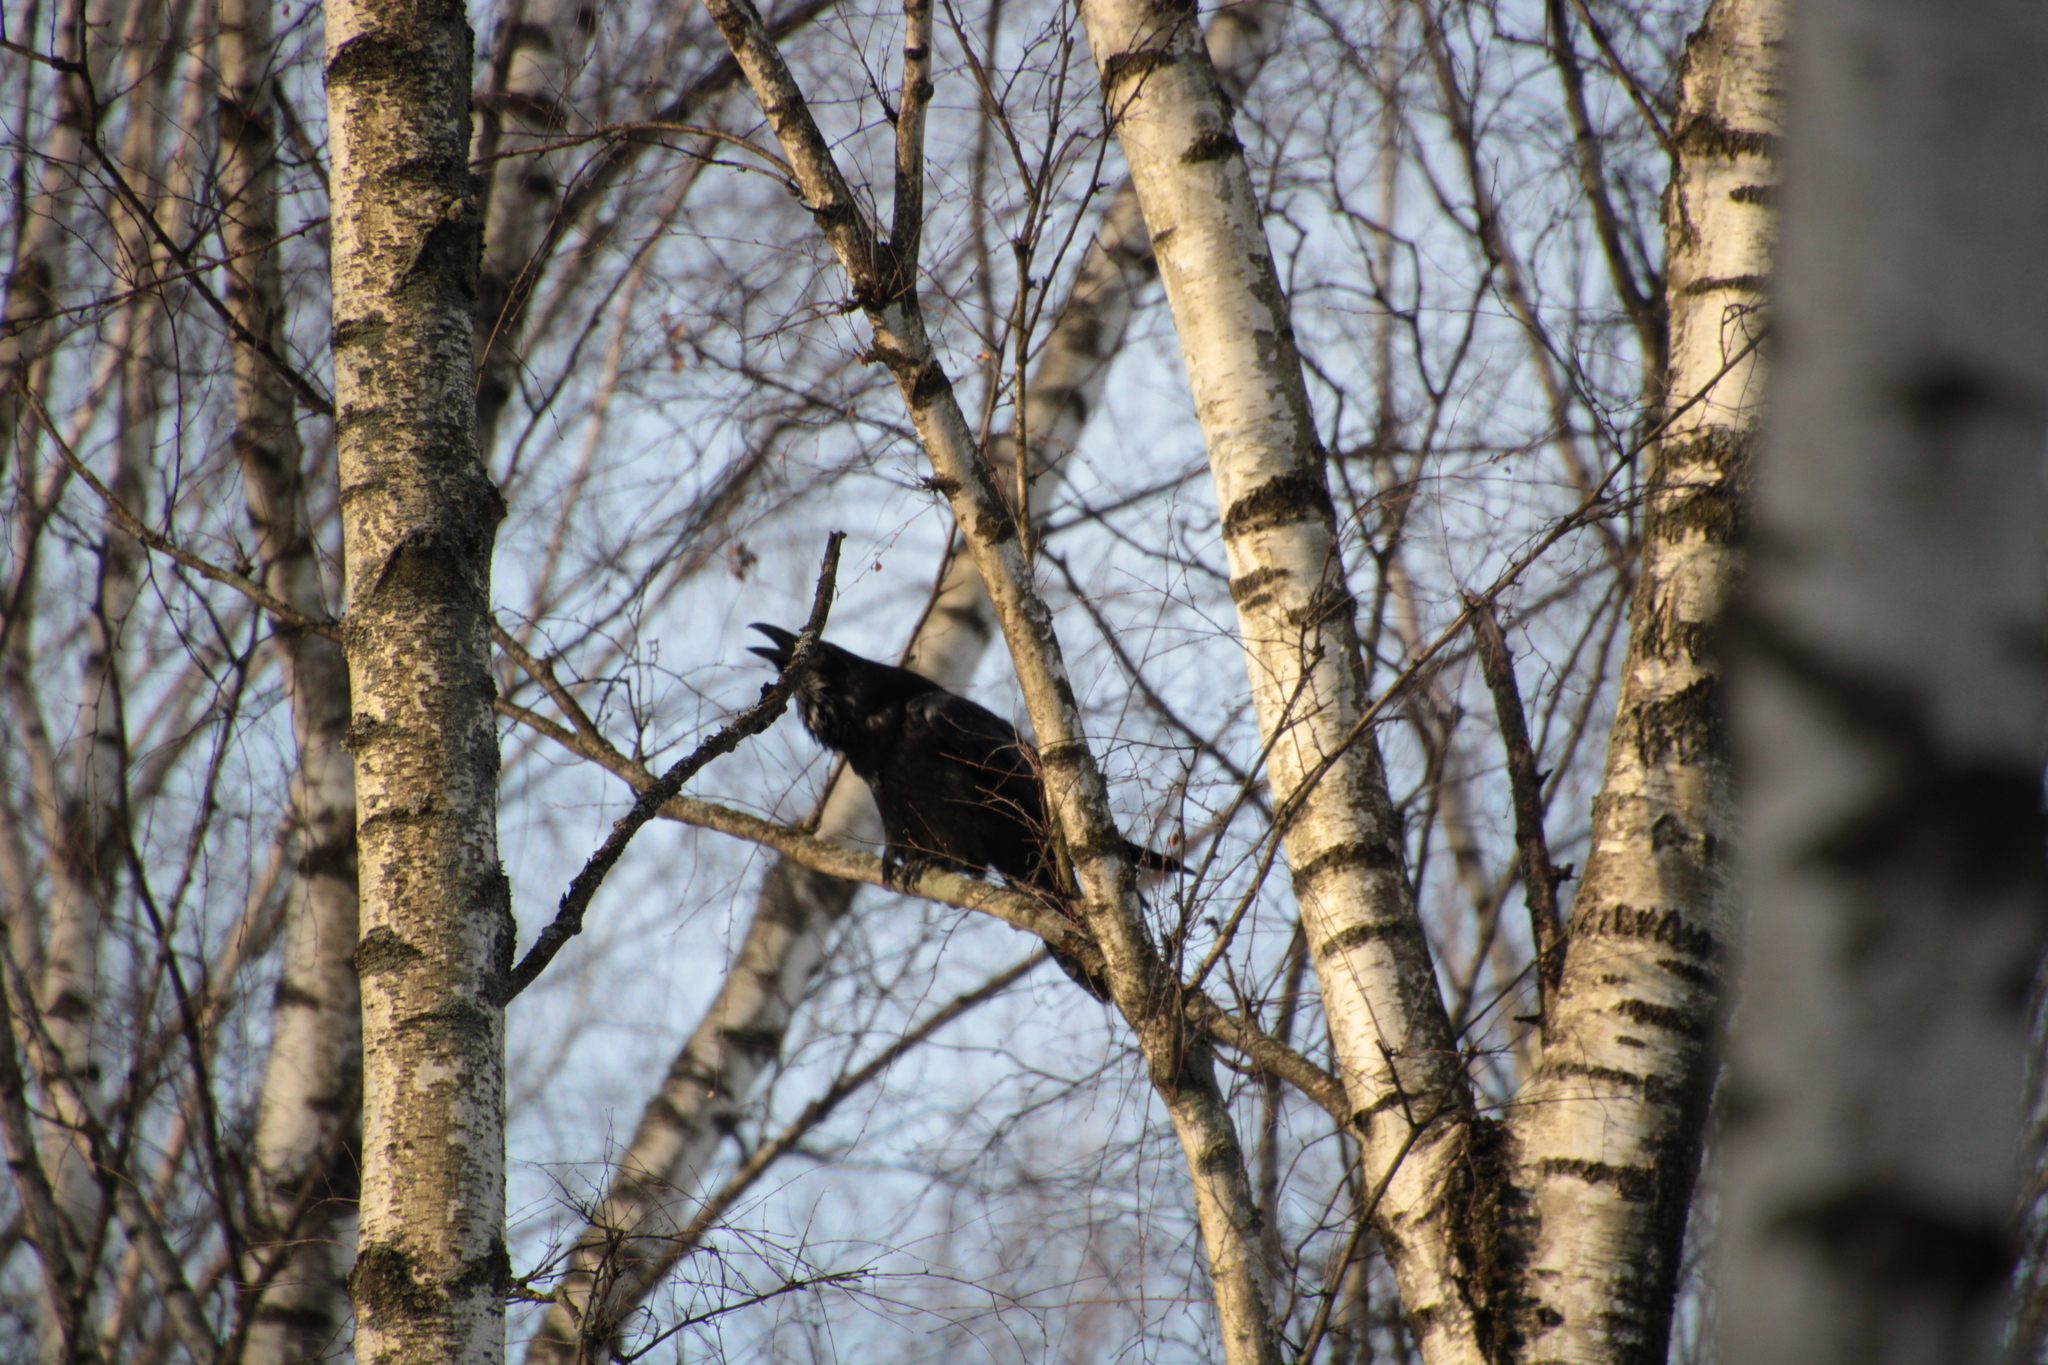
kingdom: Animalia
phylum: Chordata
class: Aves
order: Passeriformes
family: Corvidae
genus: Corvus
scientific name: Corvus corax
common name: Common raven
